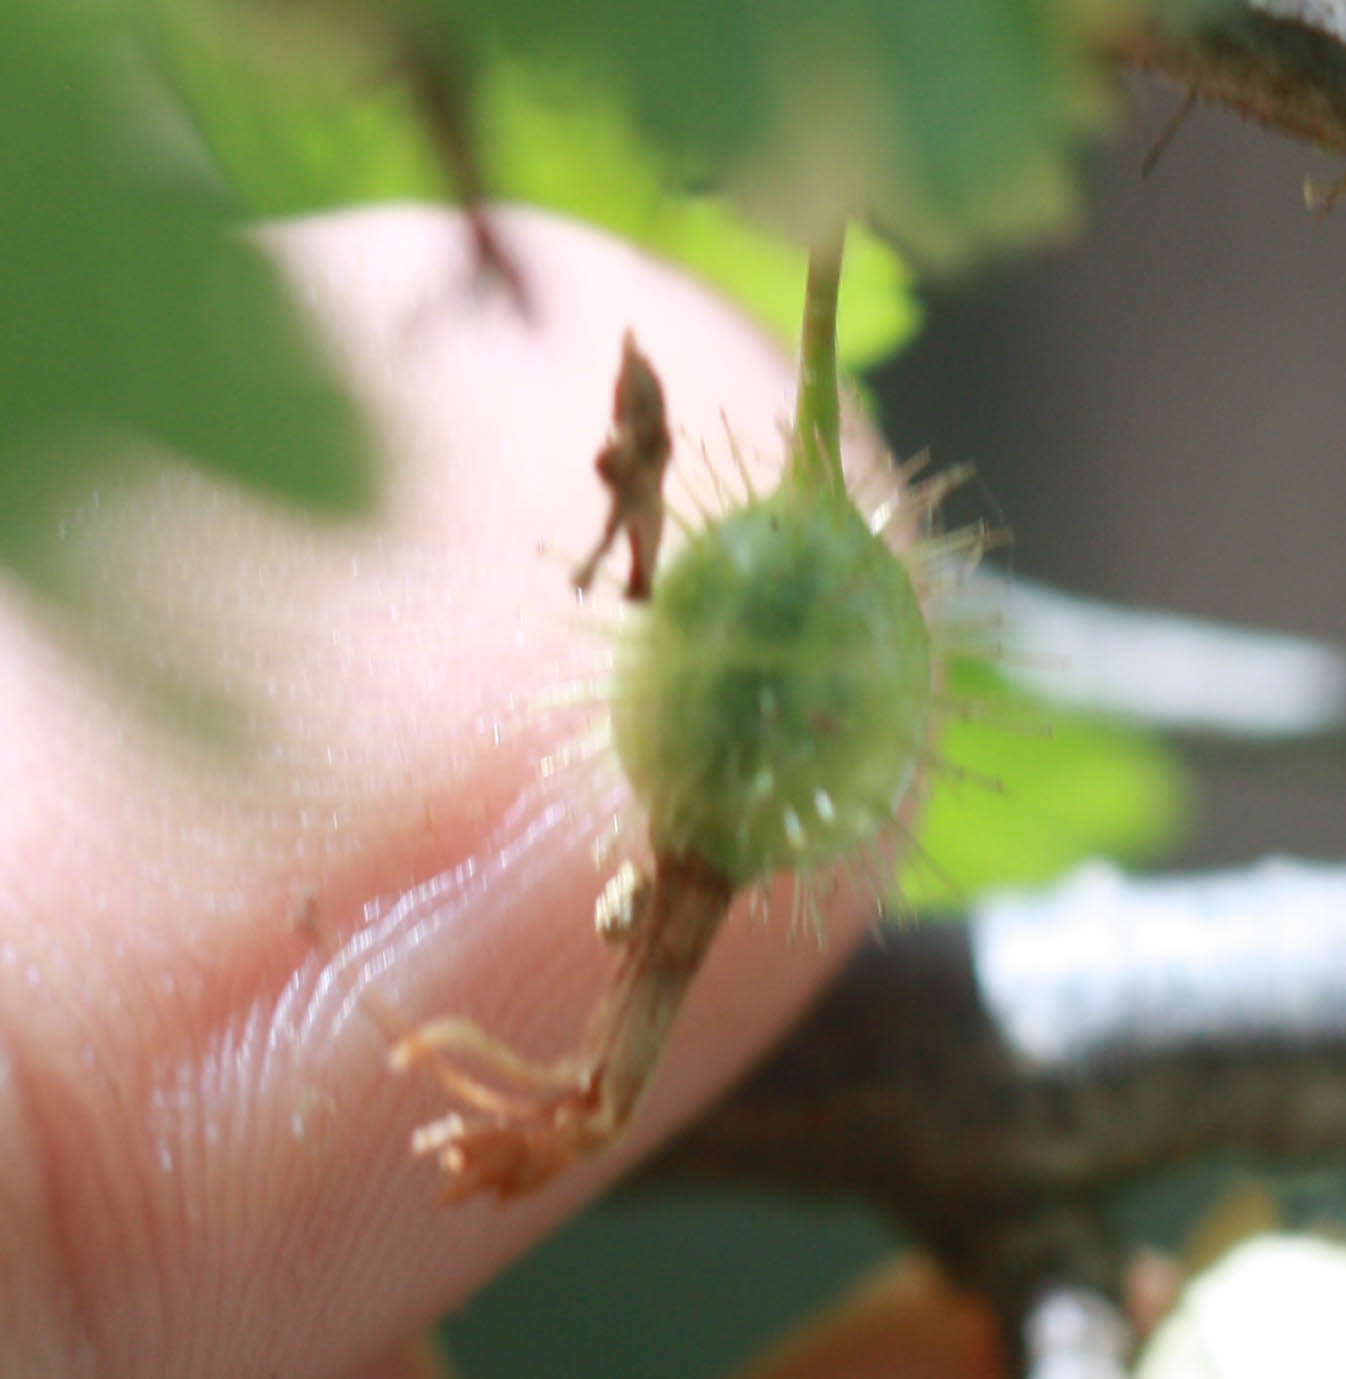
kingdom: Plantae
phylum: Tracheophyta
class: Magnoliopsida
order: Saxifragales
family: Grossulariaceae
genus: Ribes
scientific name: Ribes californicum
